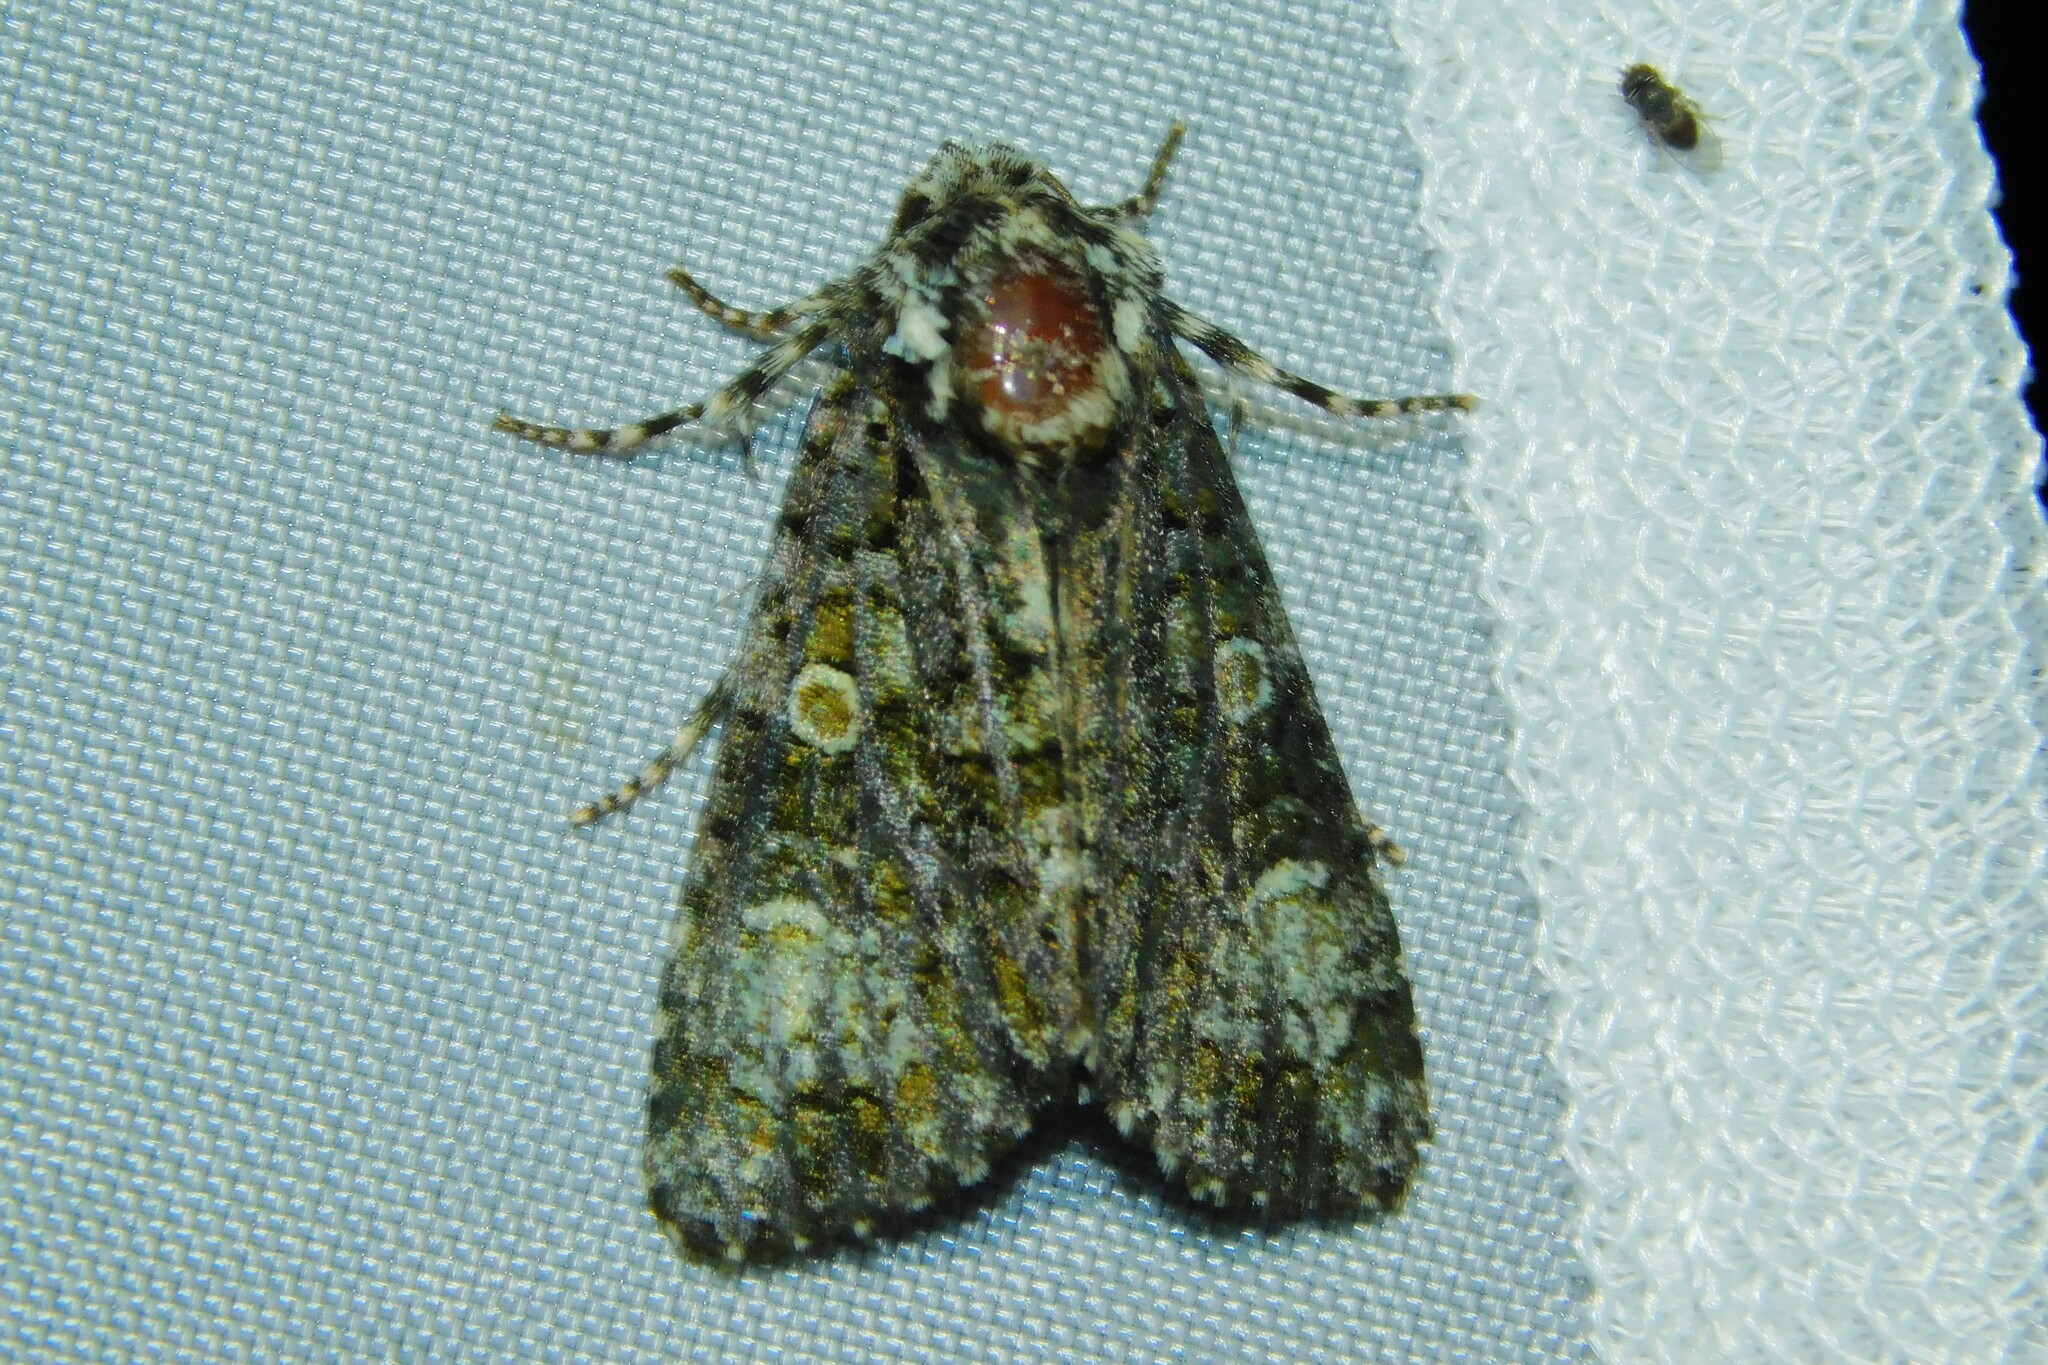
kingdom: Animalia
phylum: Arthropoda
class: Insecta
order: Lepidoptera
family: Noctuidae
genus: Craniophora
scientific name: Craniophora ligustri
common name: Coronet
